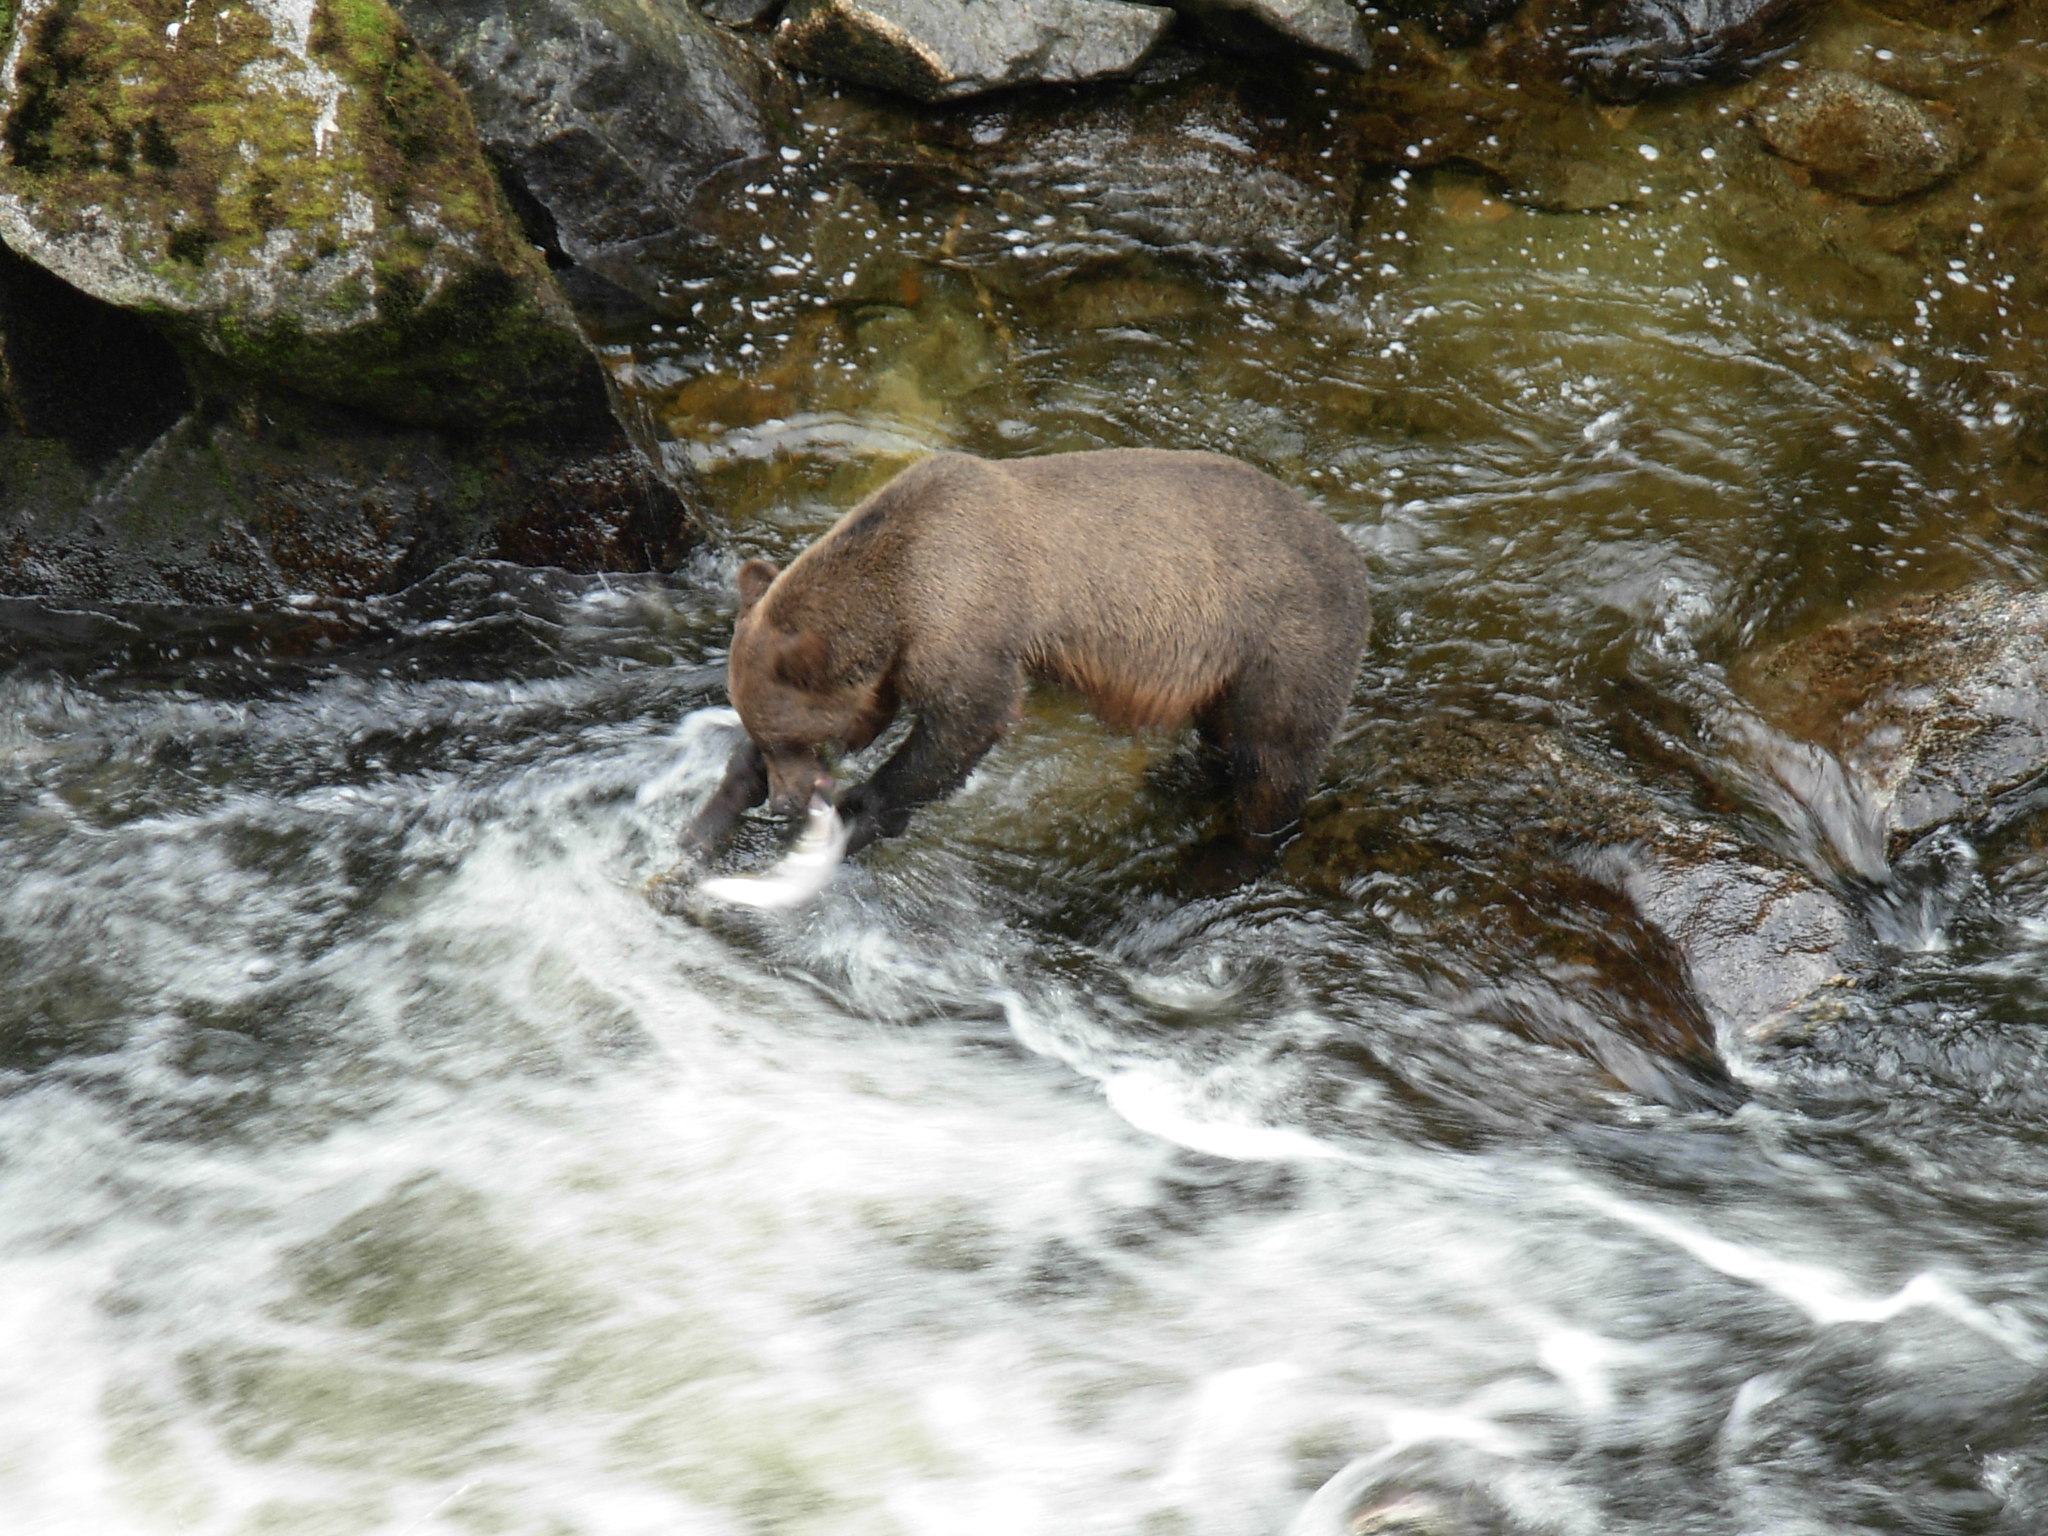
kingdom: Animalia
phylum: Chordata
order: Salmoniformes
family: Salmonidae
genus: Oncorhynchus
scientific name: Oncorhynchus gorbuscha
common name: Humpback salmon
